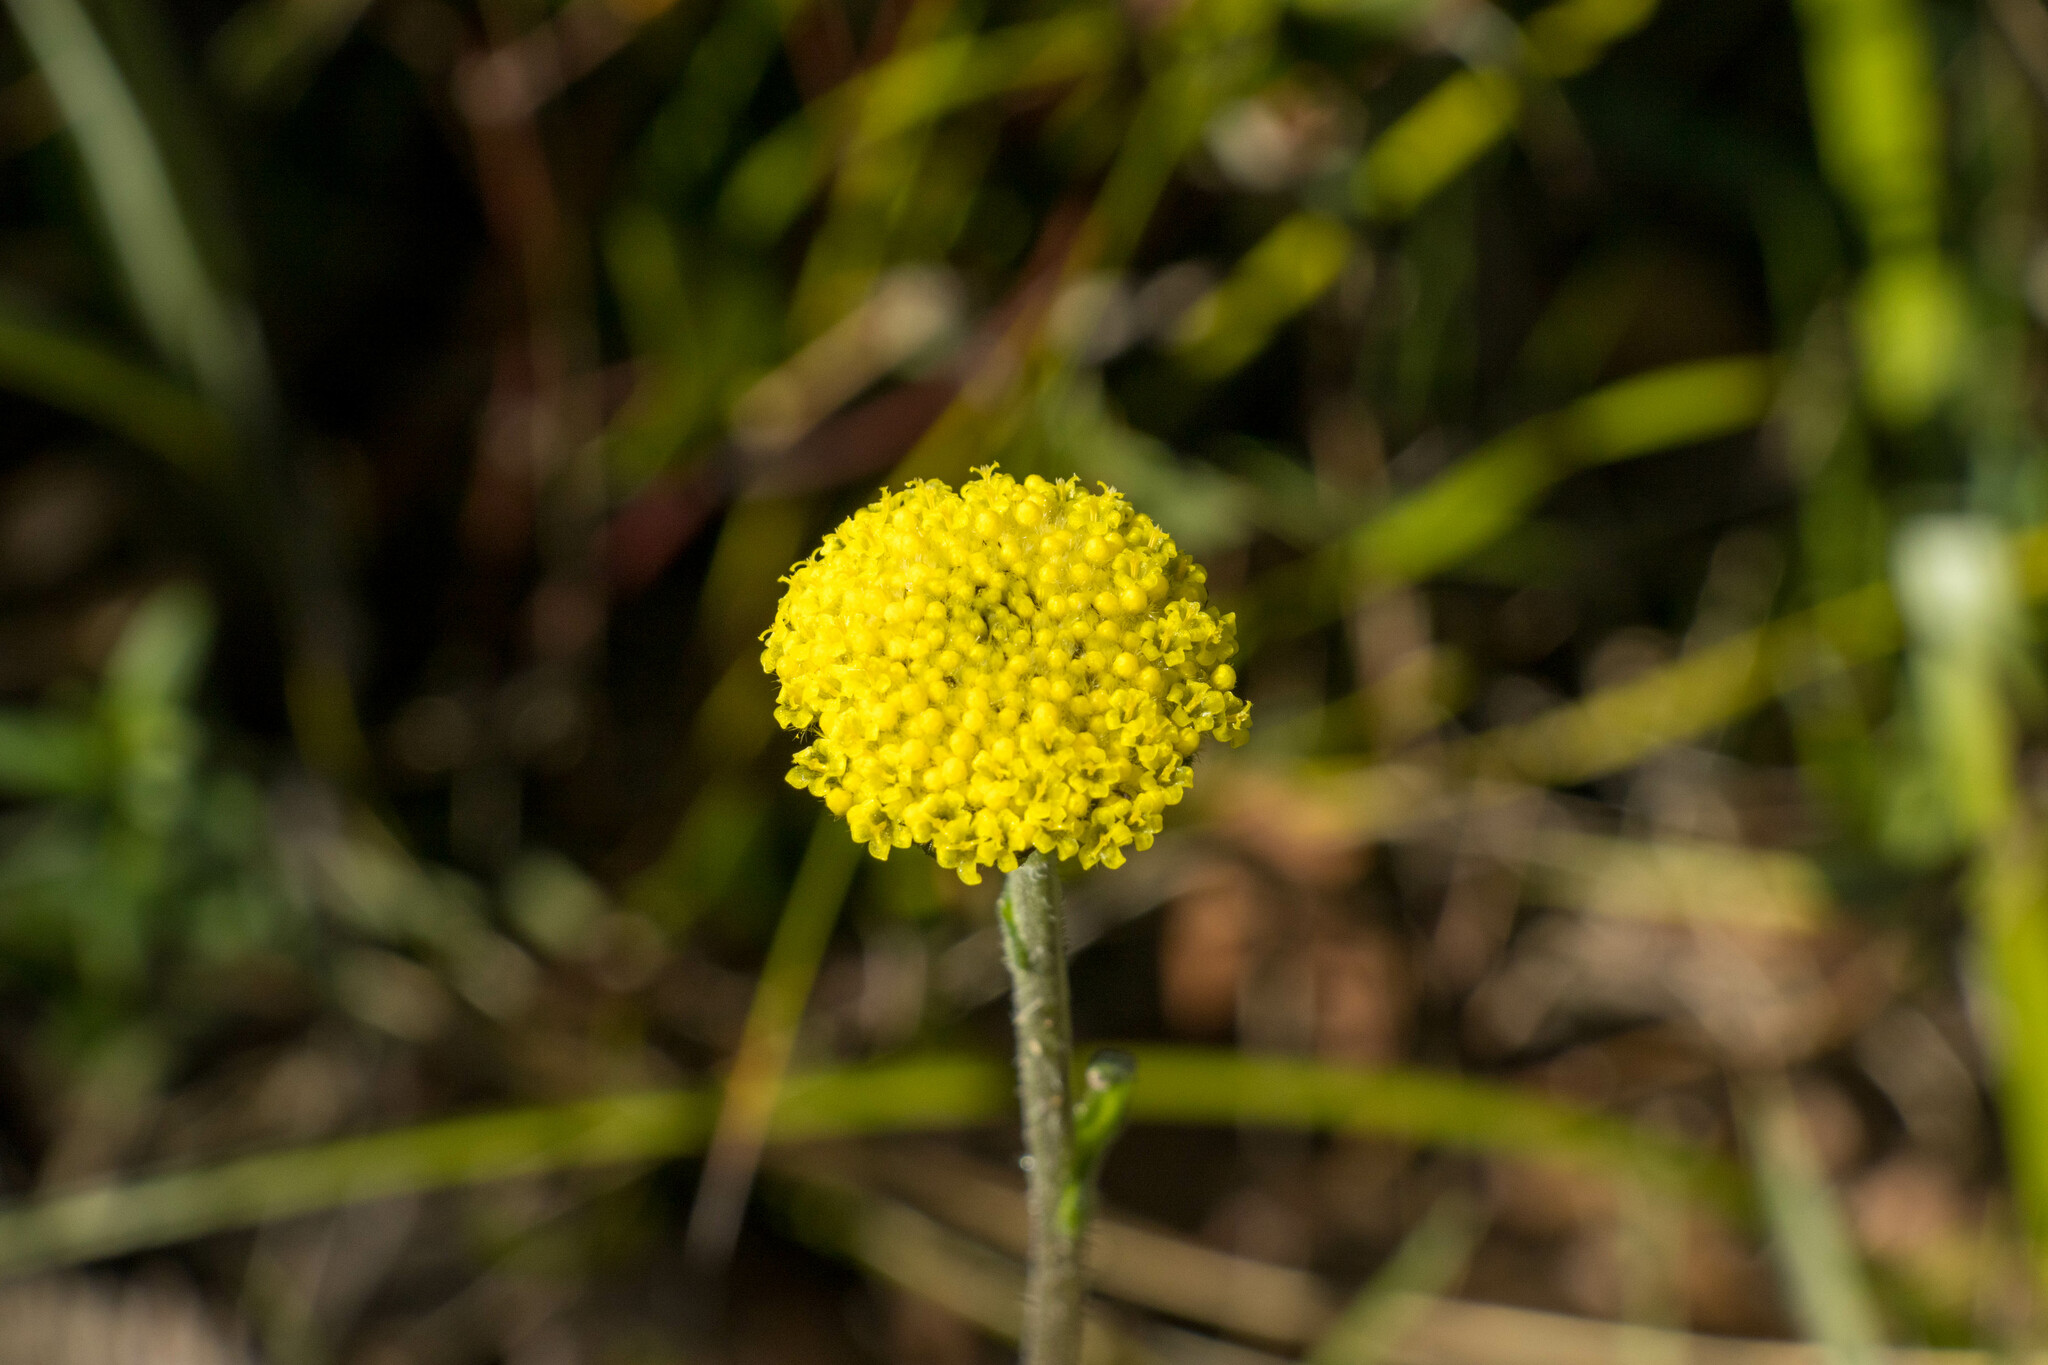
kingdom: Plantae
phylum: Tracheophyta
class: Magnoliopsida
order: Asterales
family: Asteraceae
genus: Craspedia
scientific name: Craspedia variabilis
